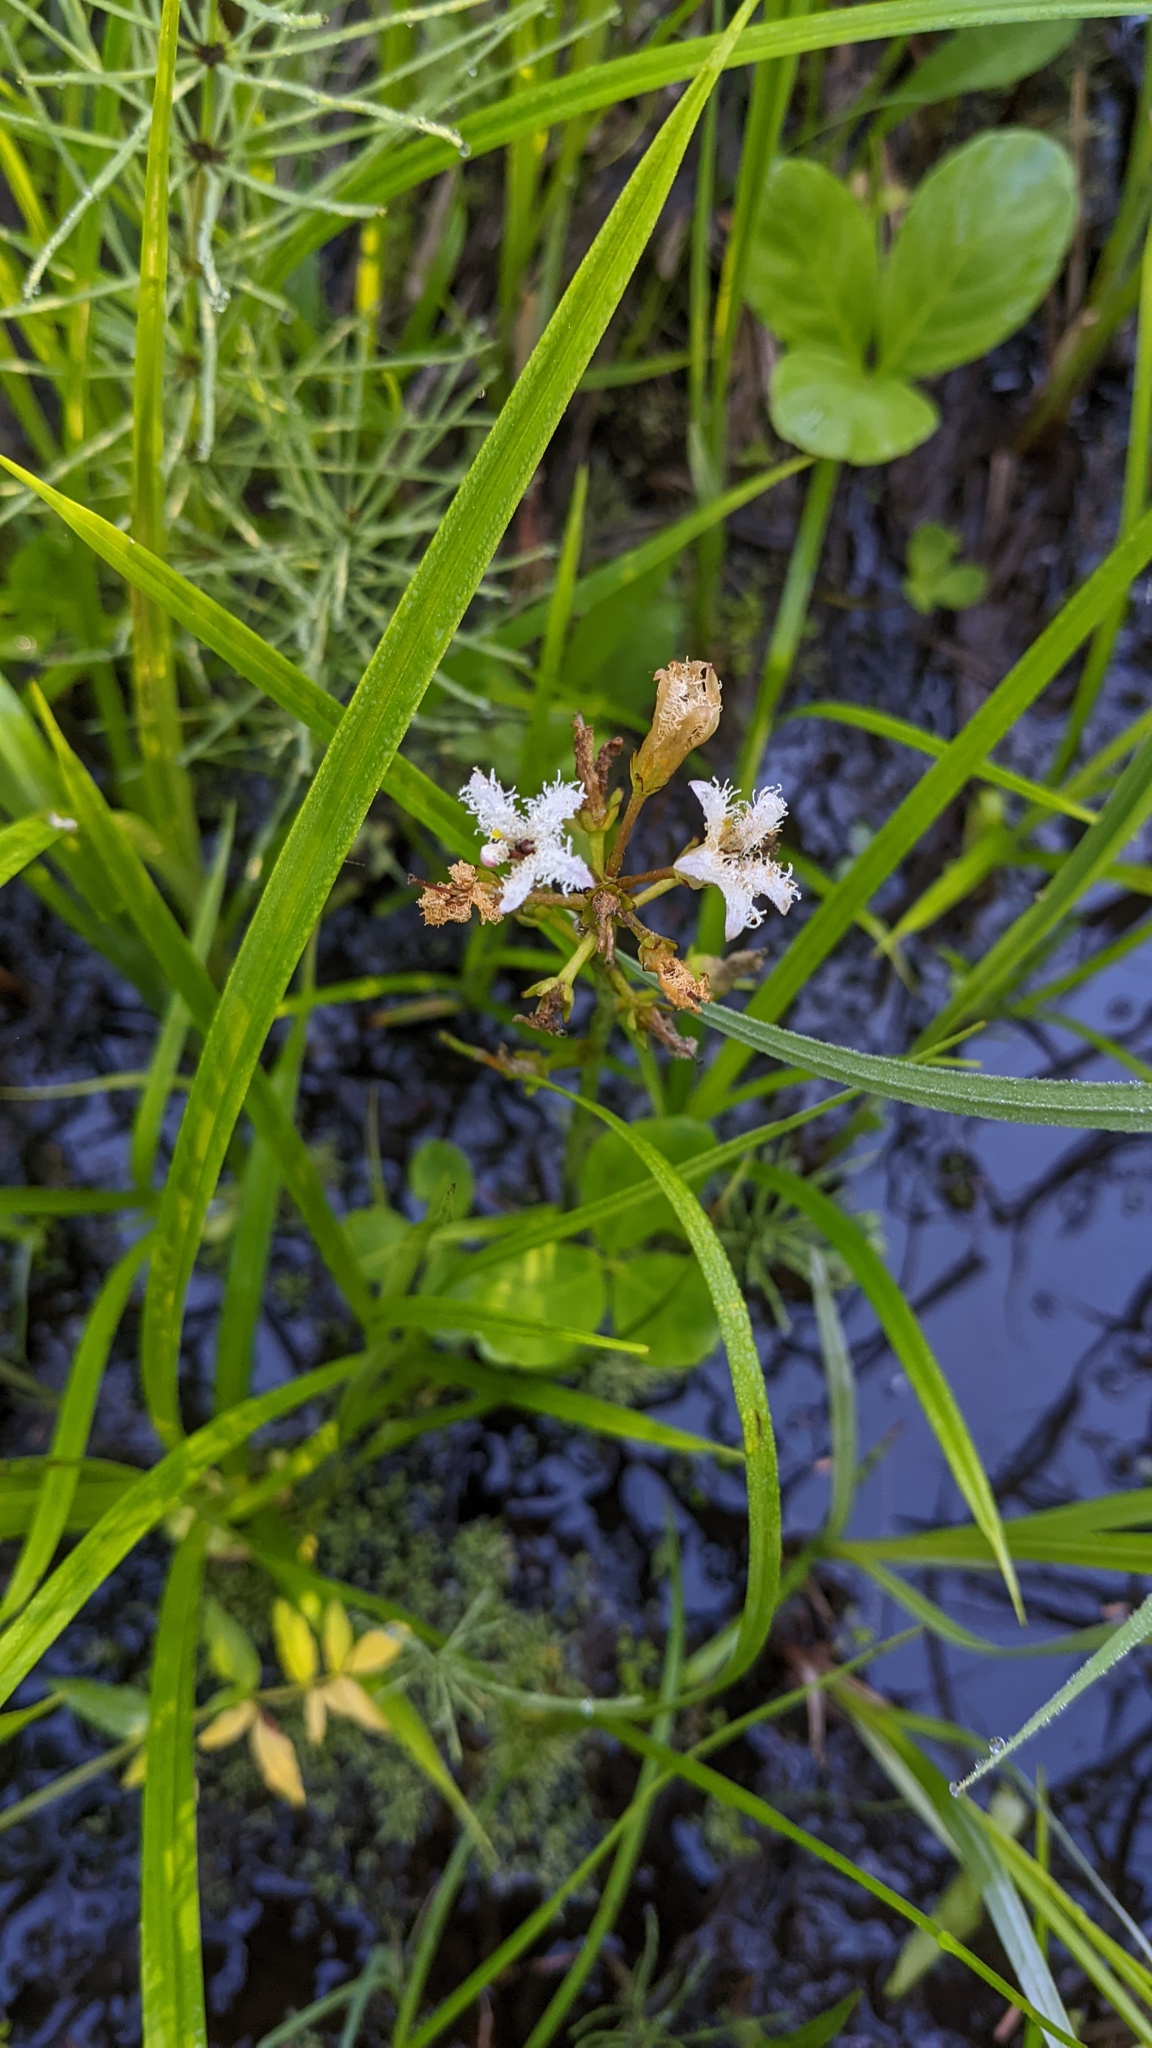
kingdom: Plantae
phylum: Tracheophyta
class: Magnoliopsida
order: Asterales
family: Menyanthaceae
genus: Menyanthes
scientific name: Menyanthes trifoliata
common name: Bogbean
